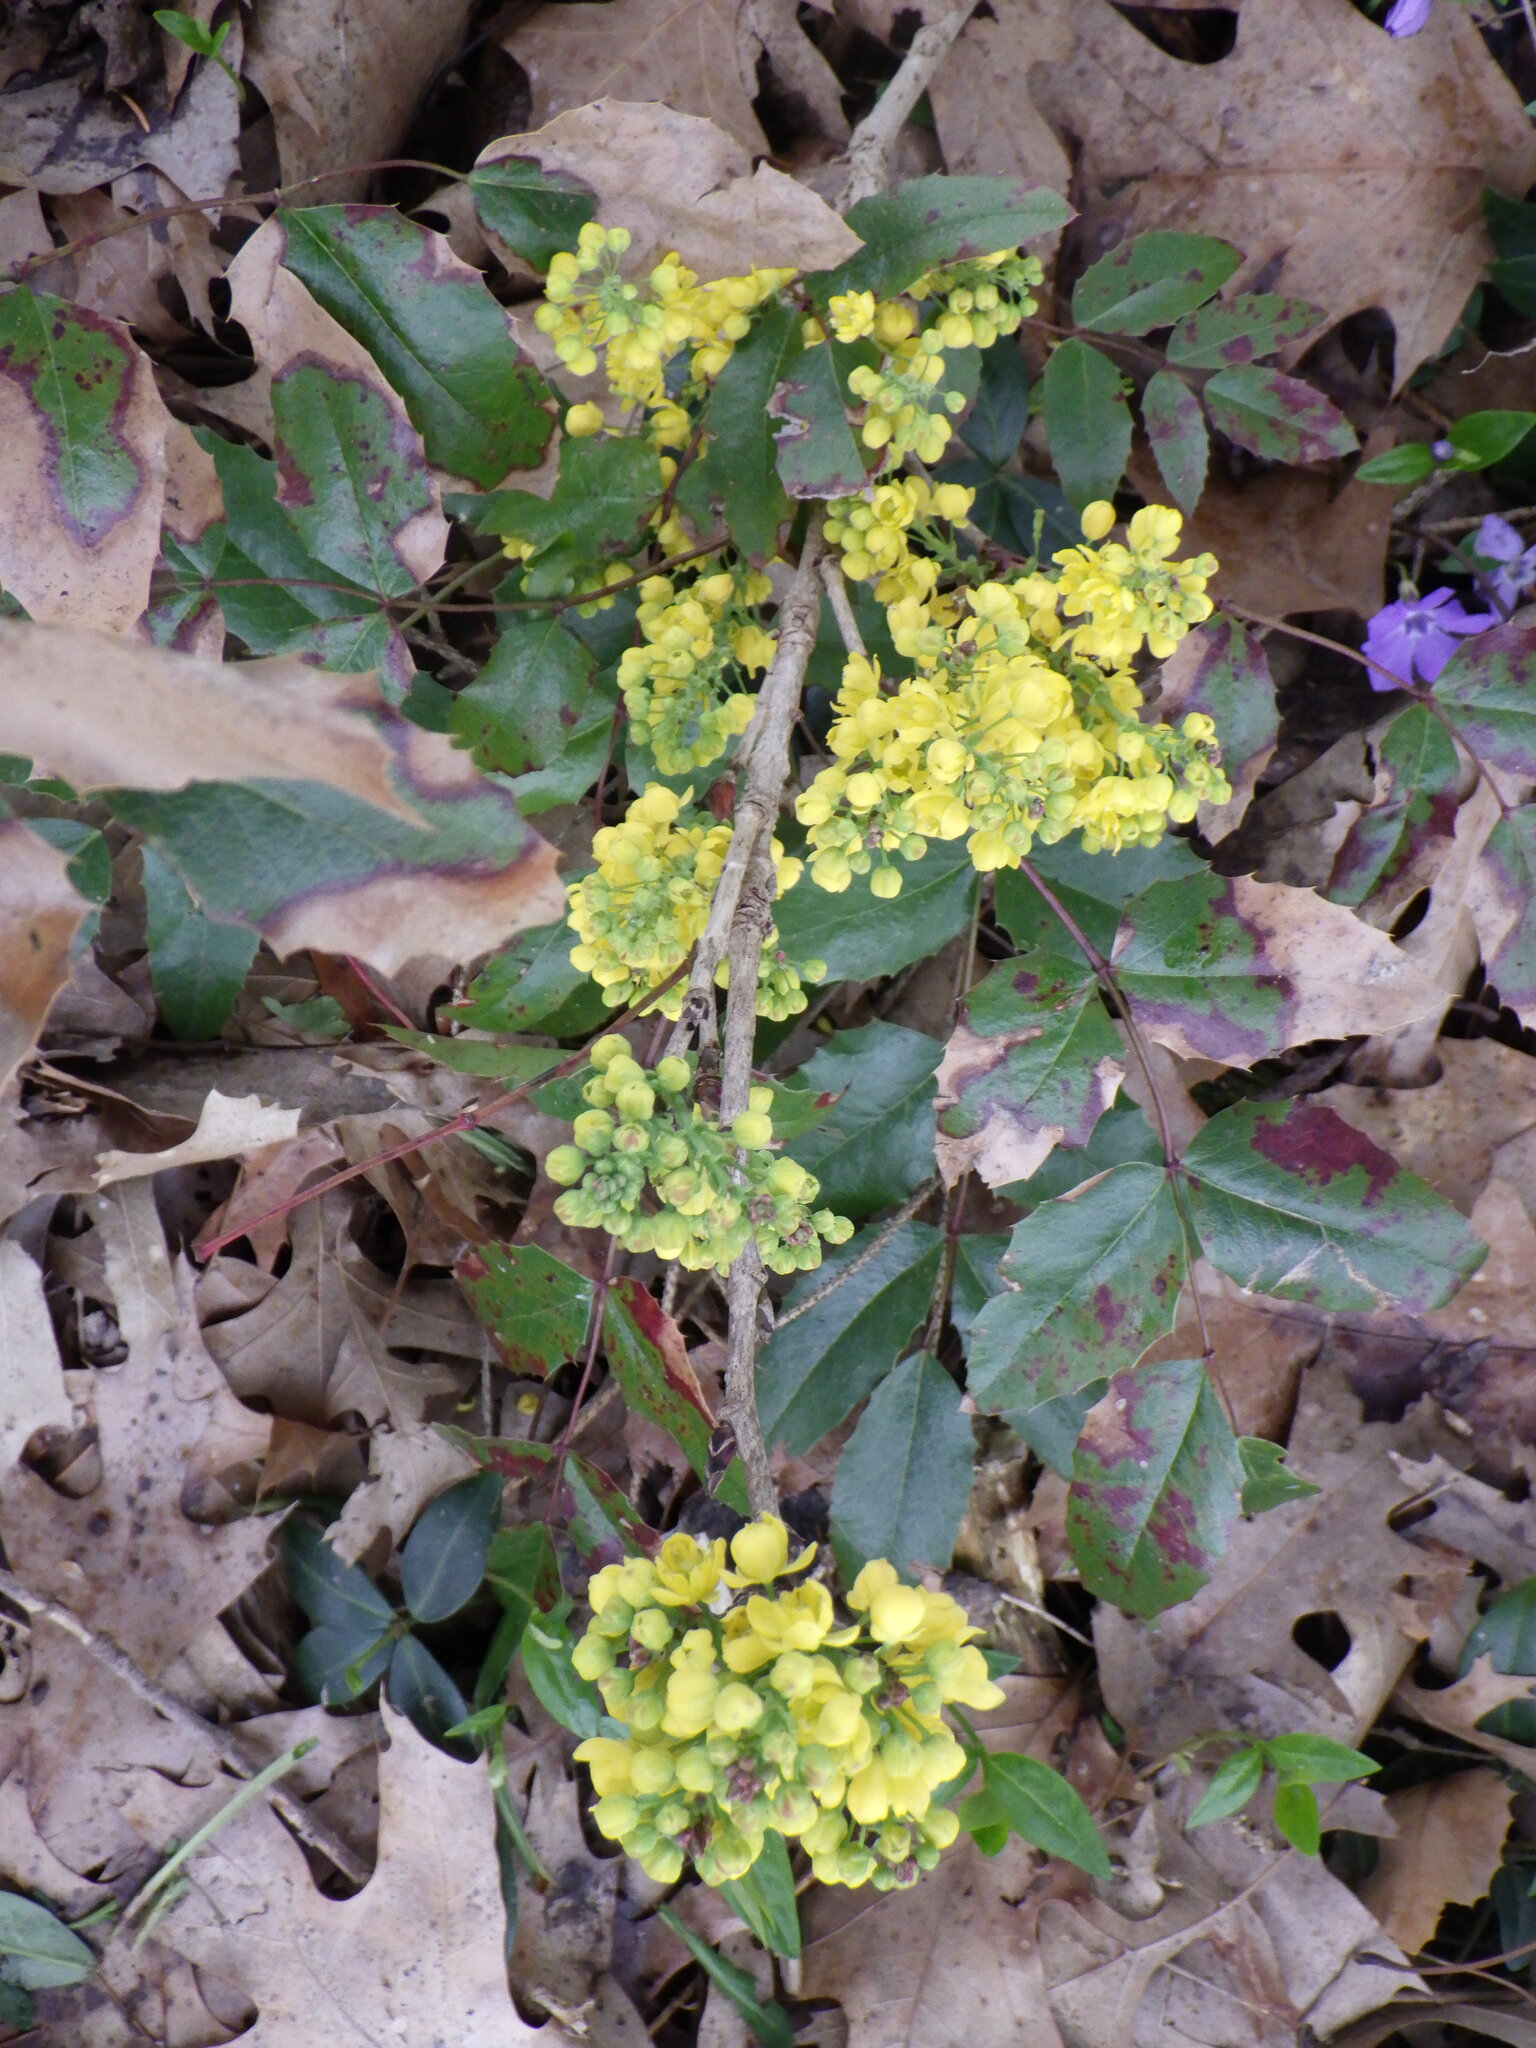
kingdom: Plantae
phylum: Tracheophyta
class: Magnoliopsida
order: Ranunculales
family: Berberidaceae
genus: Mahonia
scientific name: Mahonia aquifolium
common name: Oregon-grape
